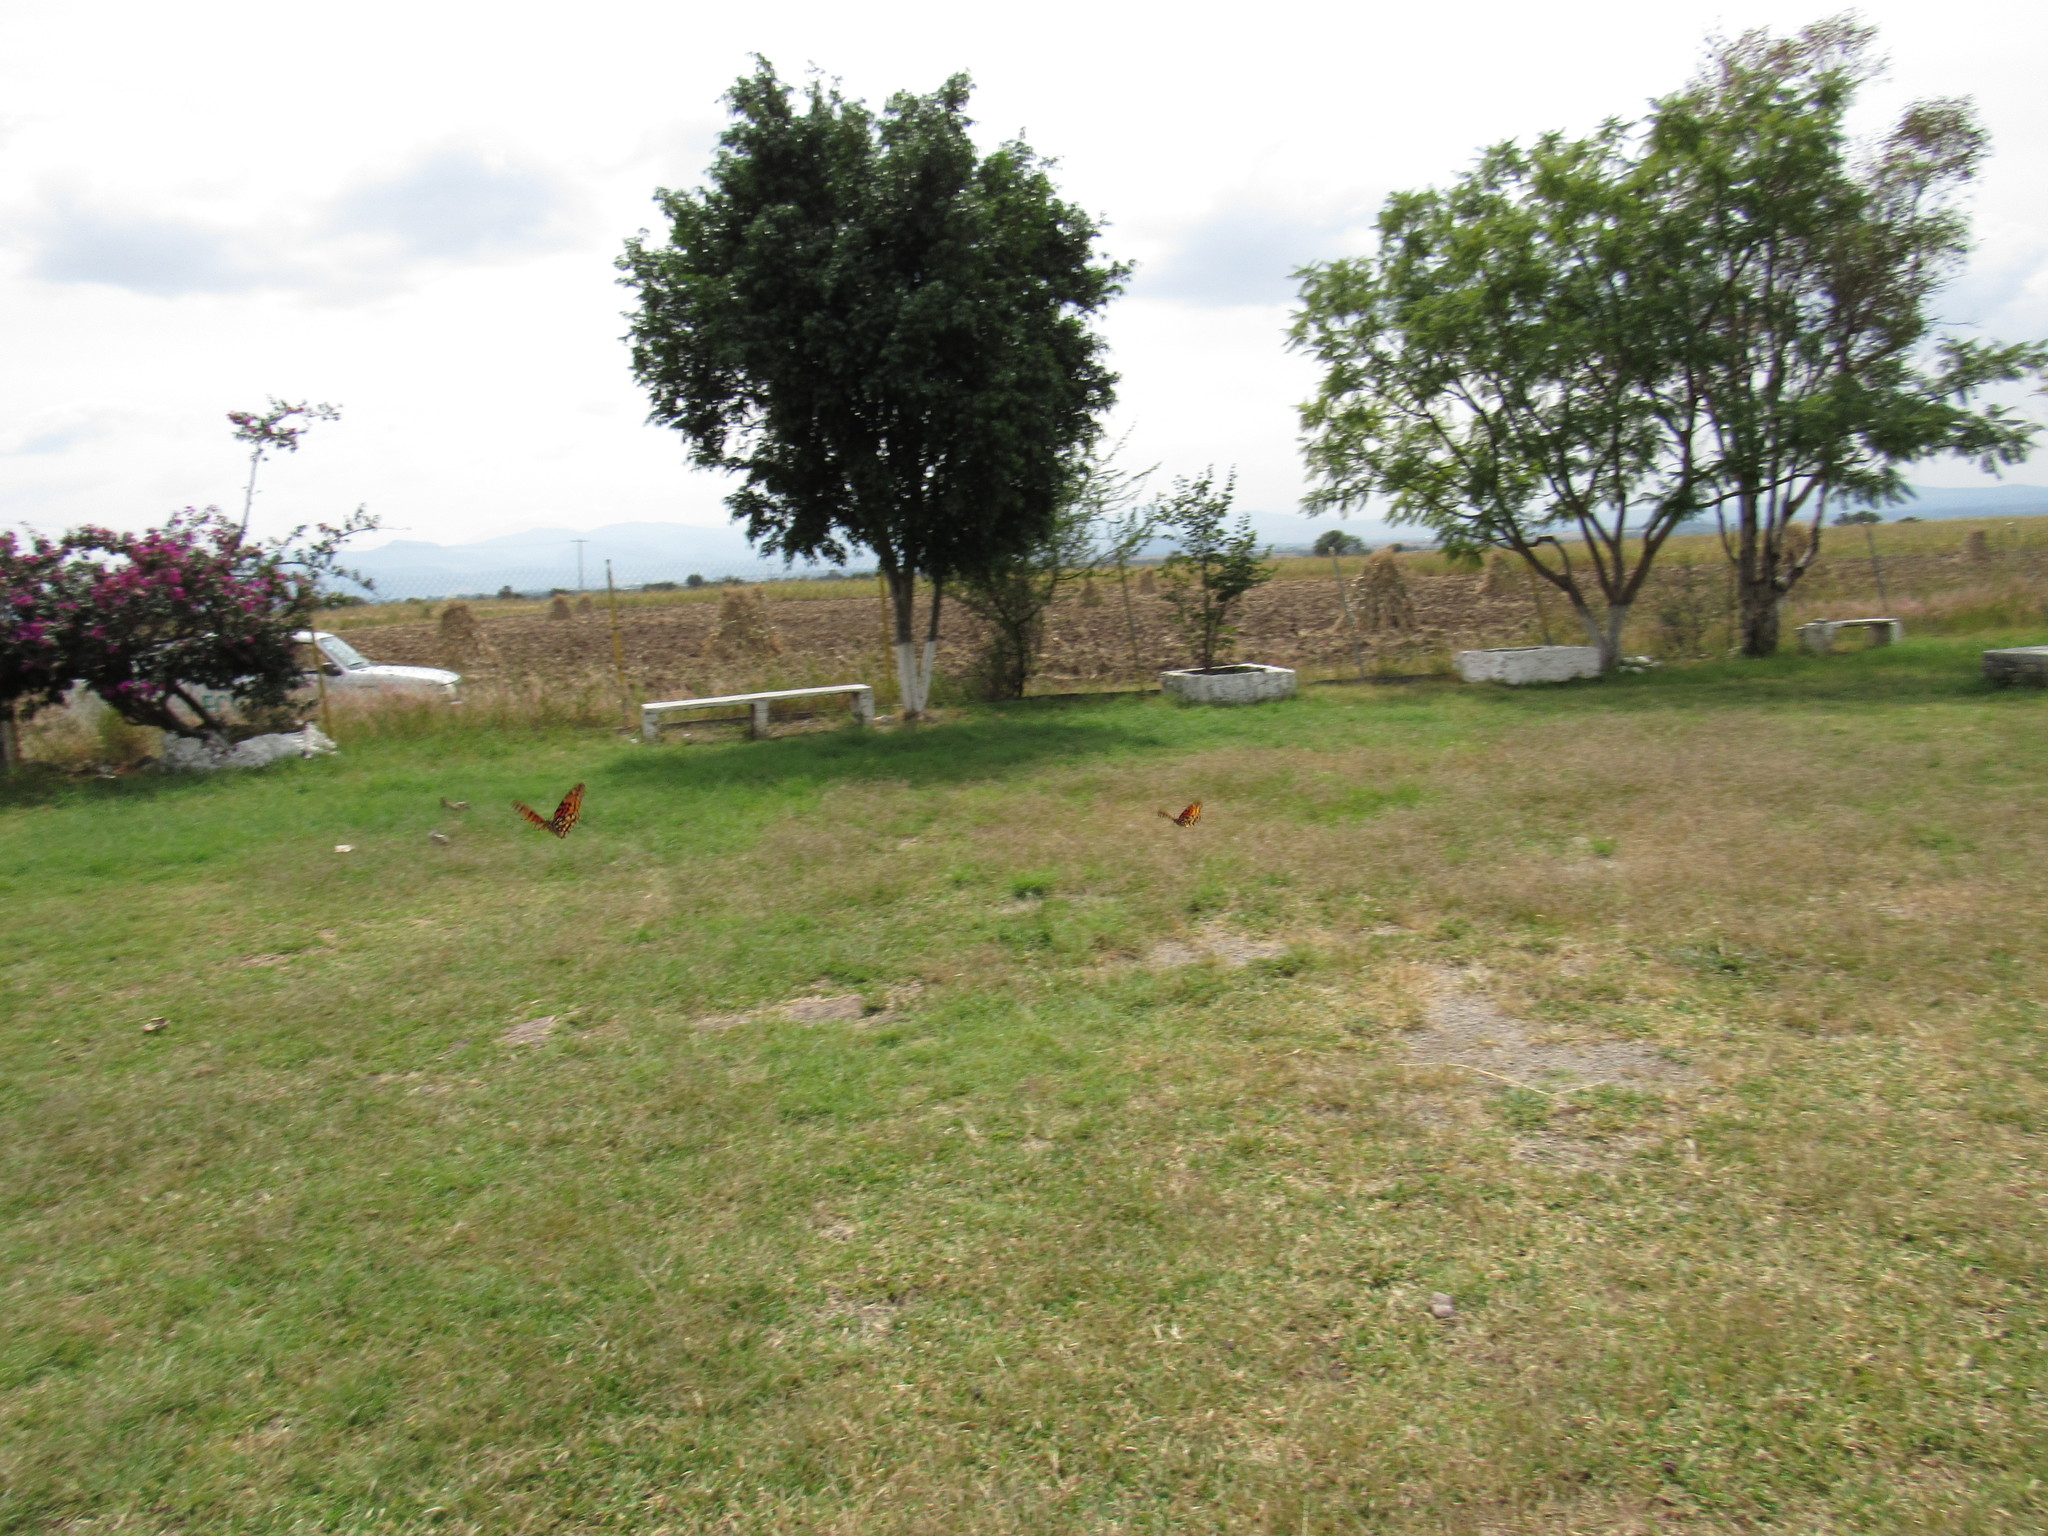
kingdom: Animalia
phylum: Arthropoda
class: Insecta
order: Lepidoptera
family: Nymphalidae
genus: Dione
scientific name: Dione moneta
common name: Mexican silverspot
